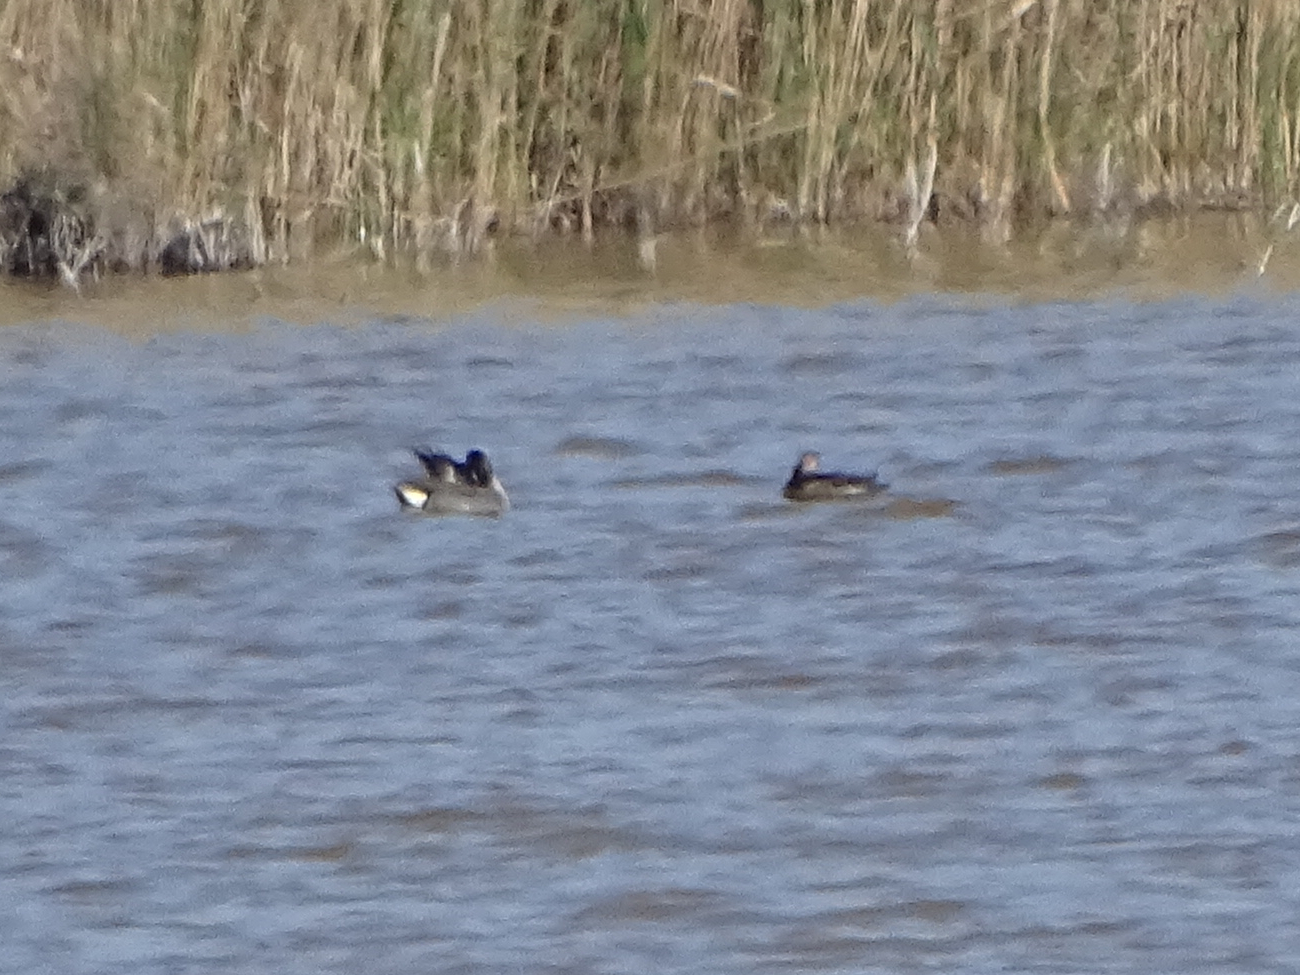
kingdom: Animalia
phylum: Chordata
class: Aves
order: Anseriformes
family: Anatidae
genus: Anas
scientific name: Anas crecca
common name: Eurasian teal
